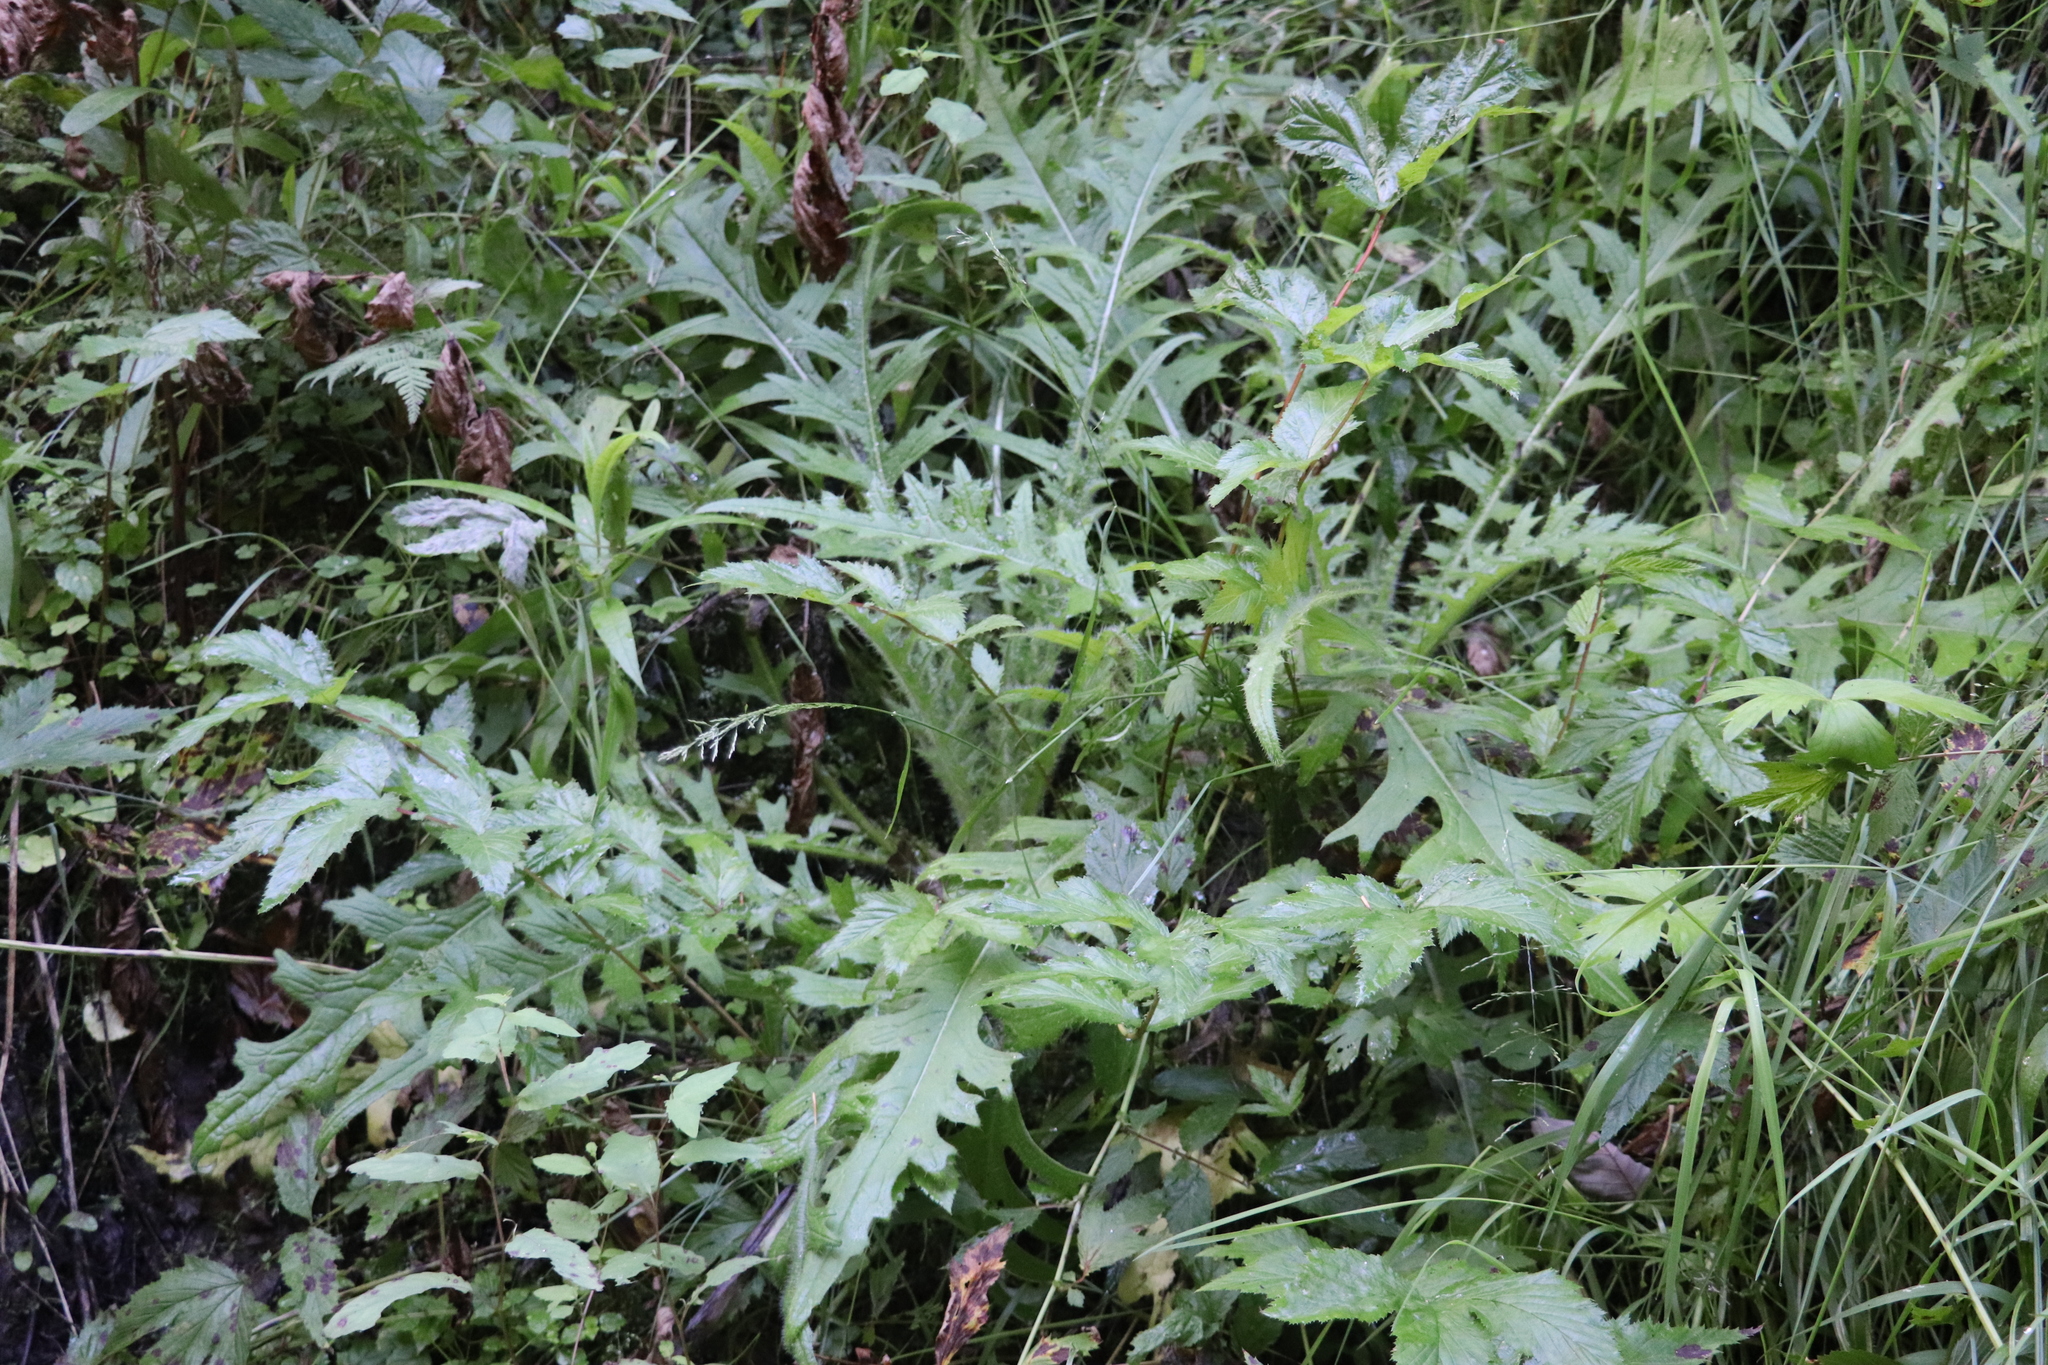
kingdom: Plantae
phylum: Tracheophyta
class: Magnoliopsida
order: Asterales
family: Asteraceae
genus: Cirsium
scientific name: Cirsium palustre
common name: Marsh thistle
